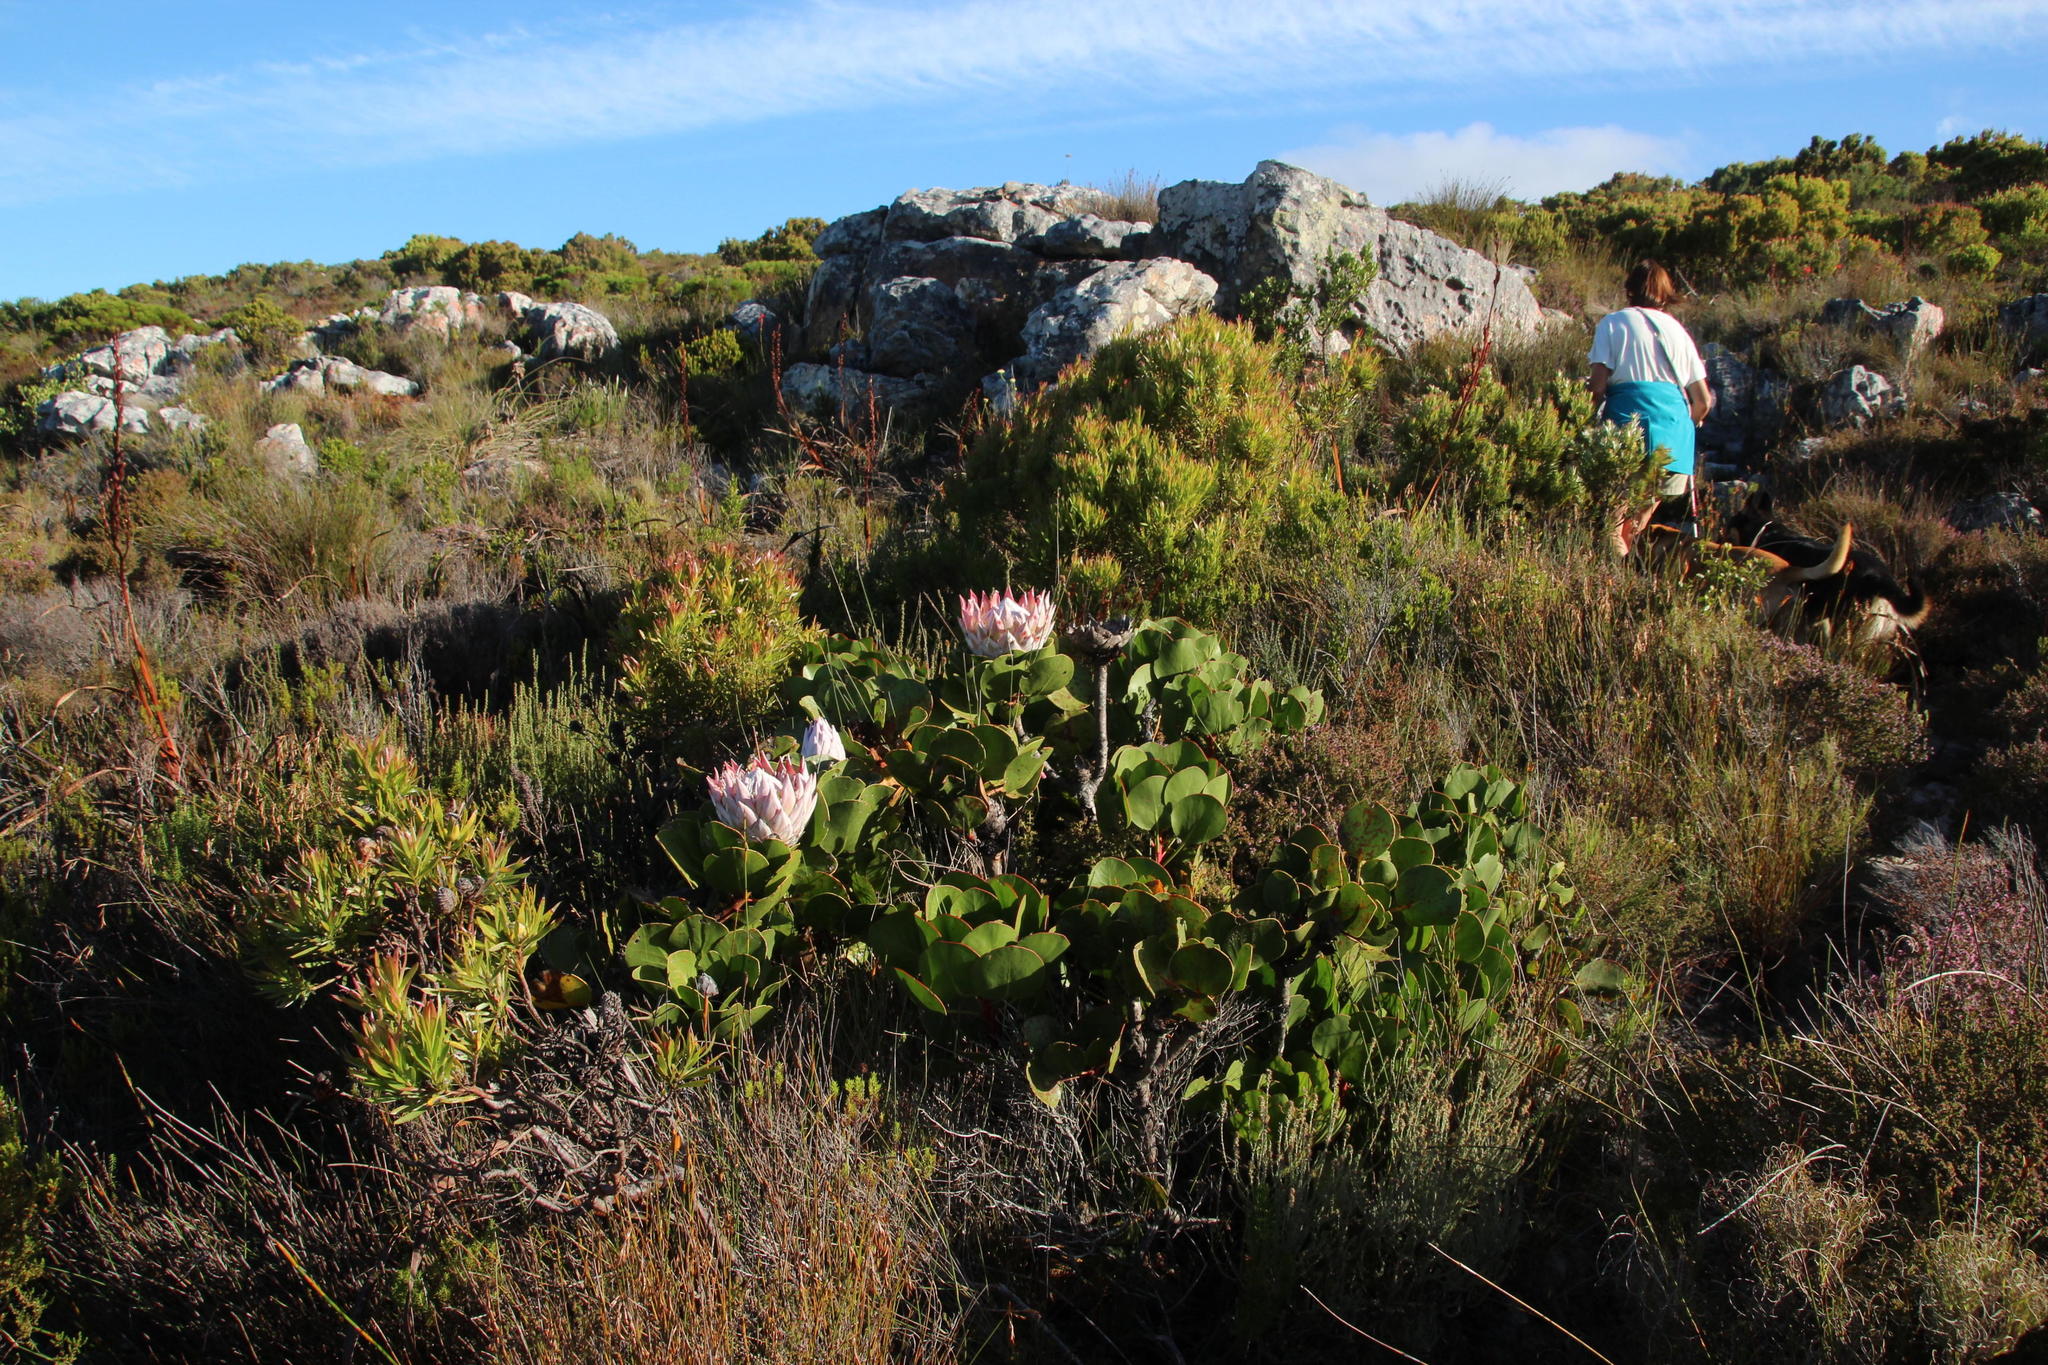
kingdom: Plantae
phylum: Tracheophyta
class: Magnoliopsida
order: Proteales
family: Proteaceae
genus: Protea
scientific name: Protea cynaroides
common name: King protea
